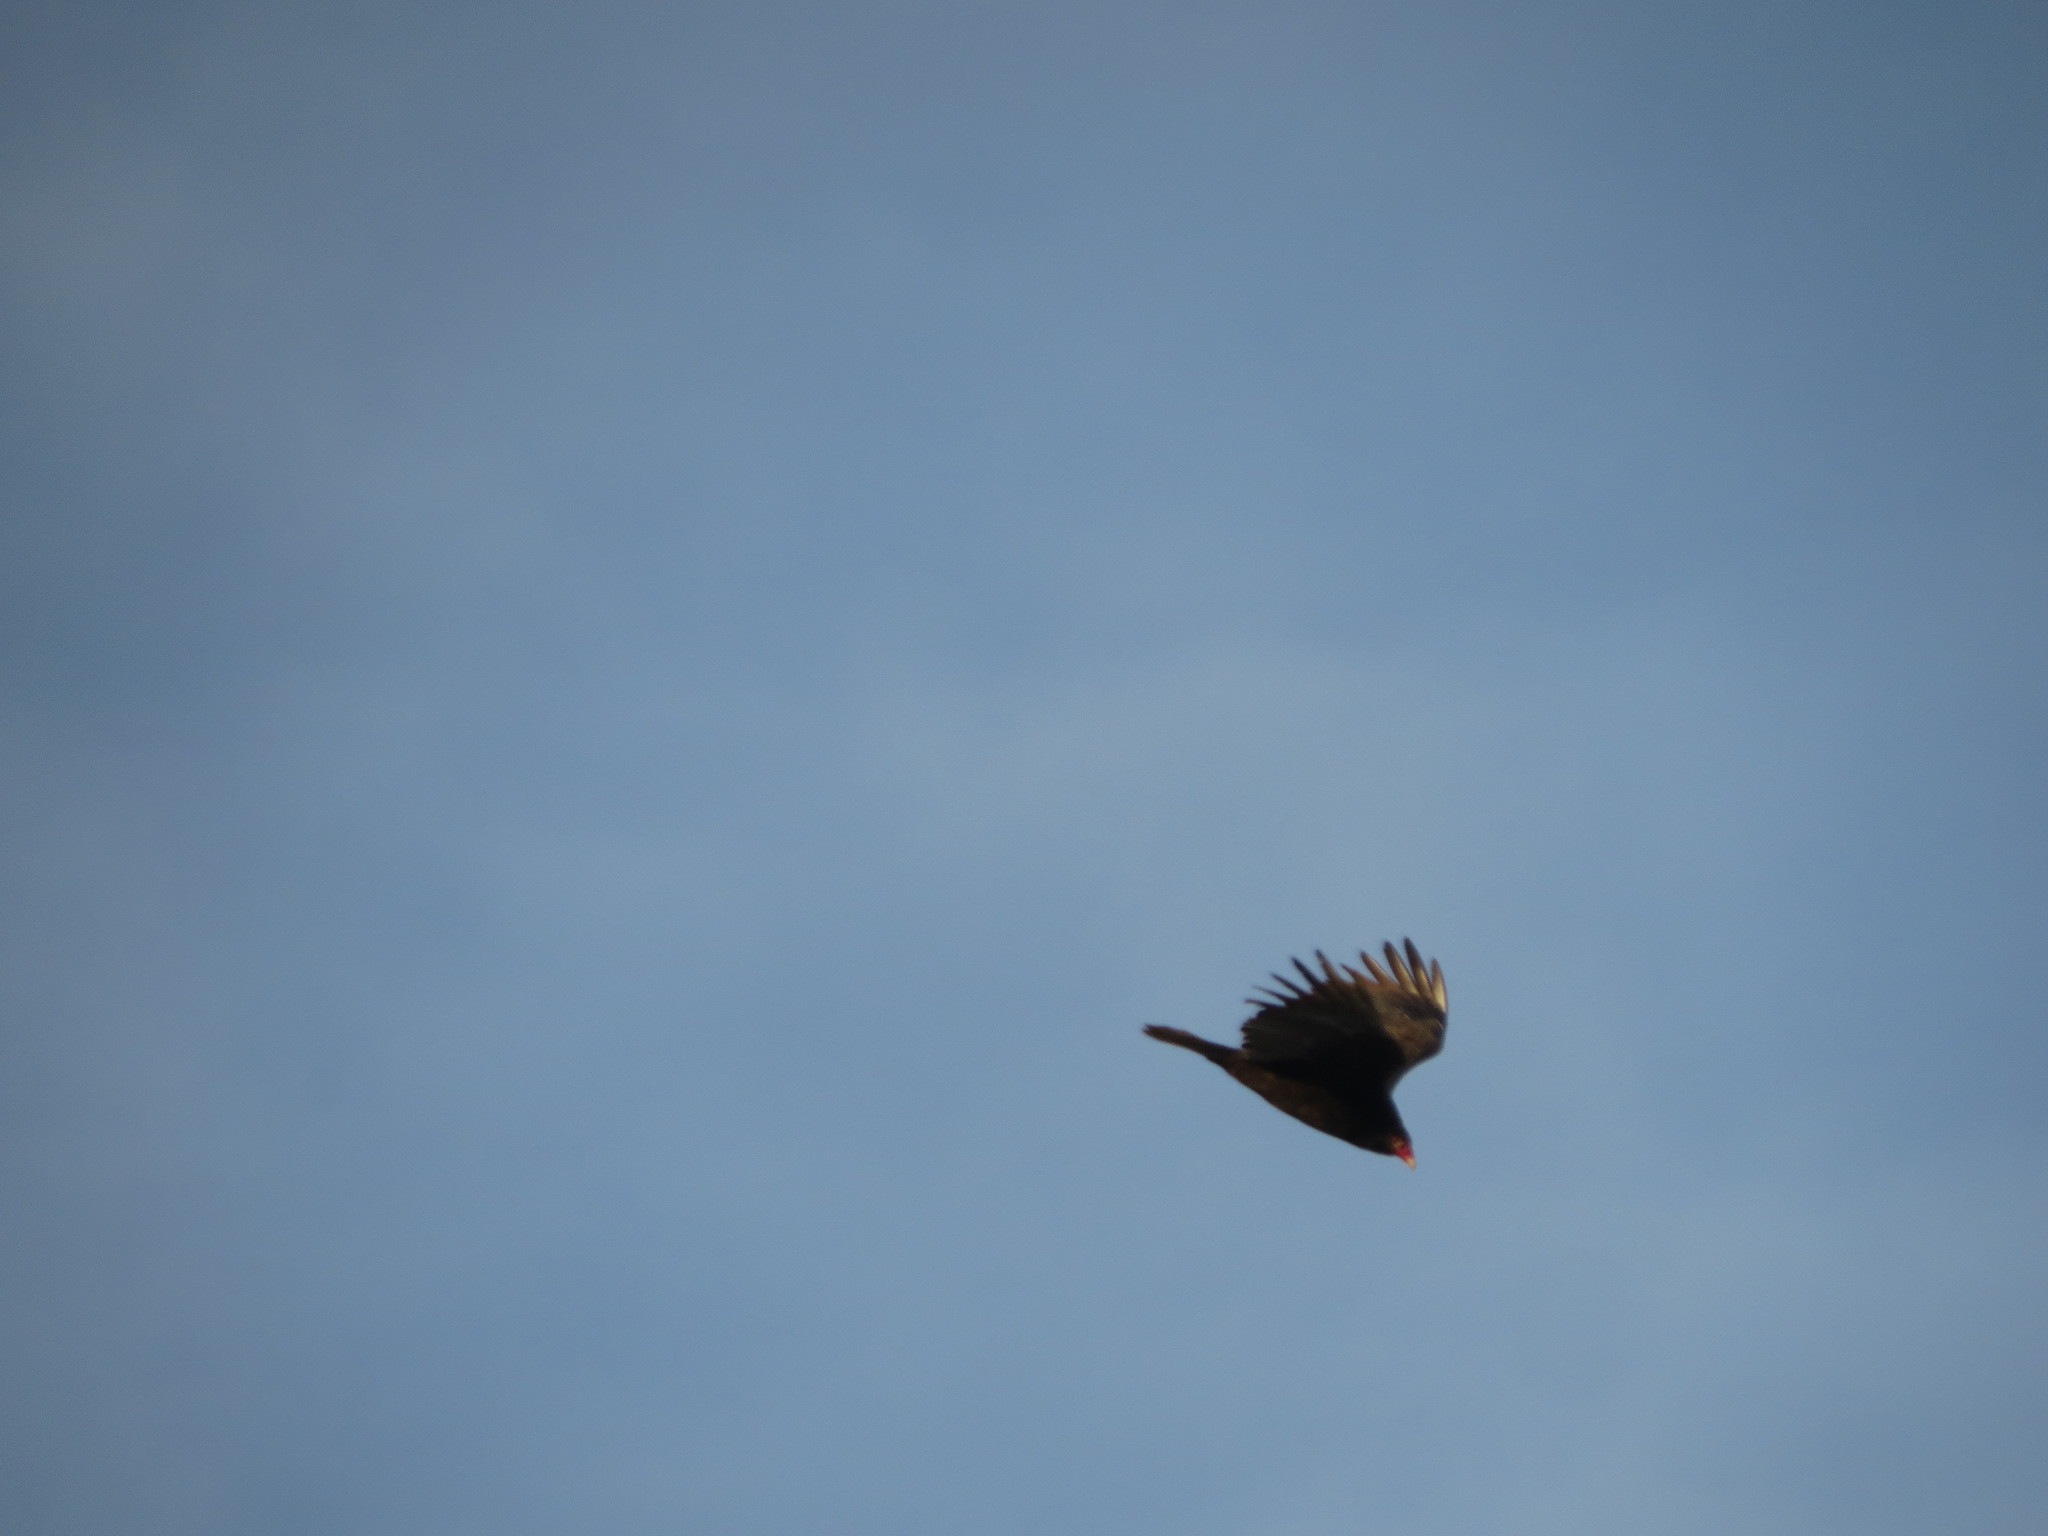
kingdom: Animalia
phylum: Chordata
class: Aves
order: Accipitriformes
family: Cathartidae
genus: Cathartes
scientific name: Cathartes aura
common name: Turkey vulture
